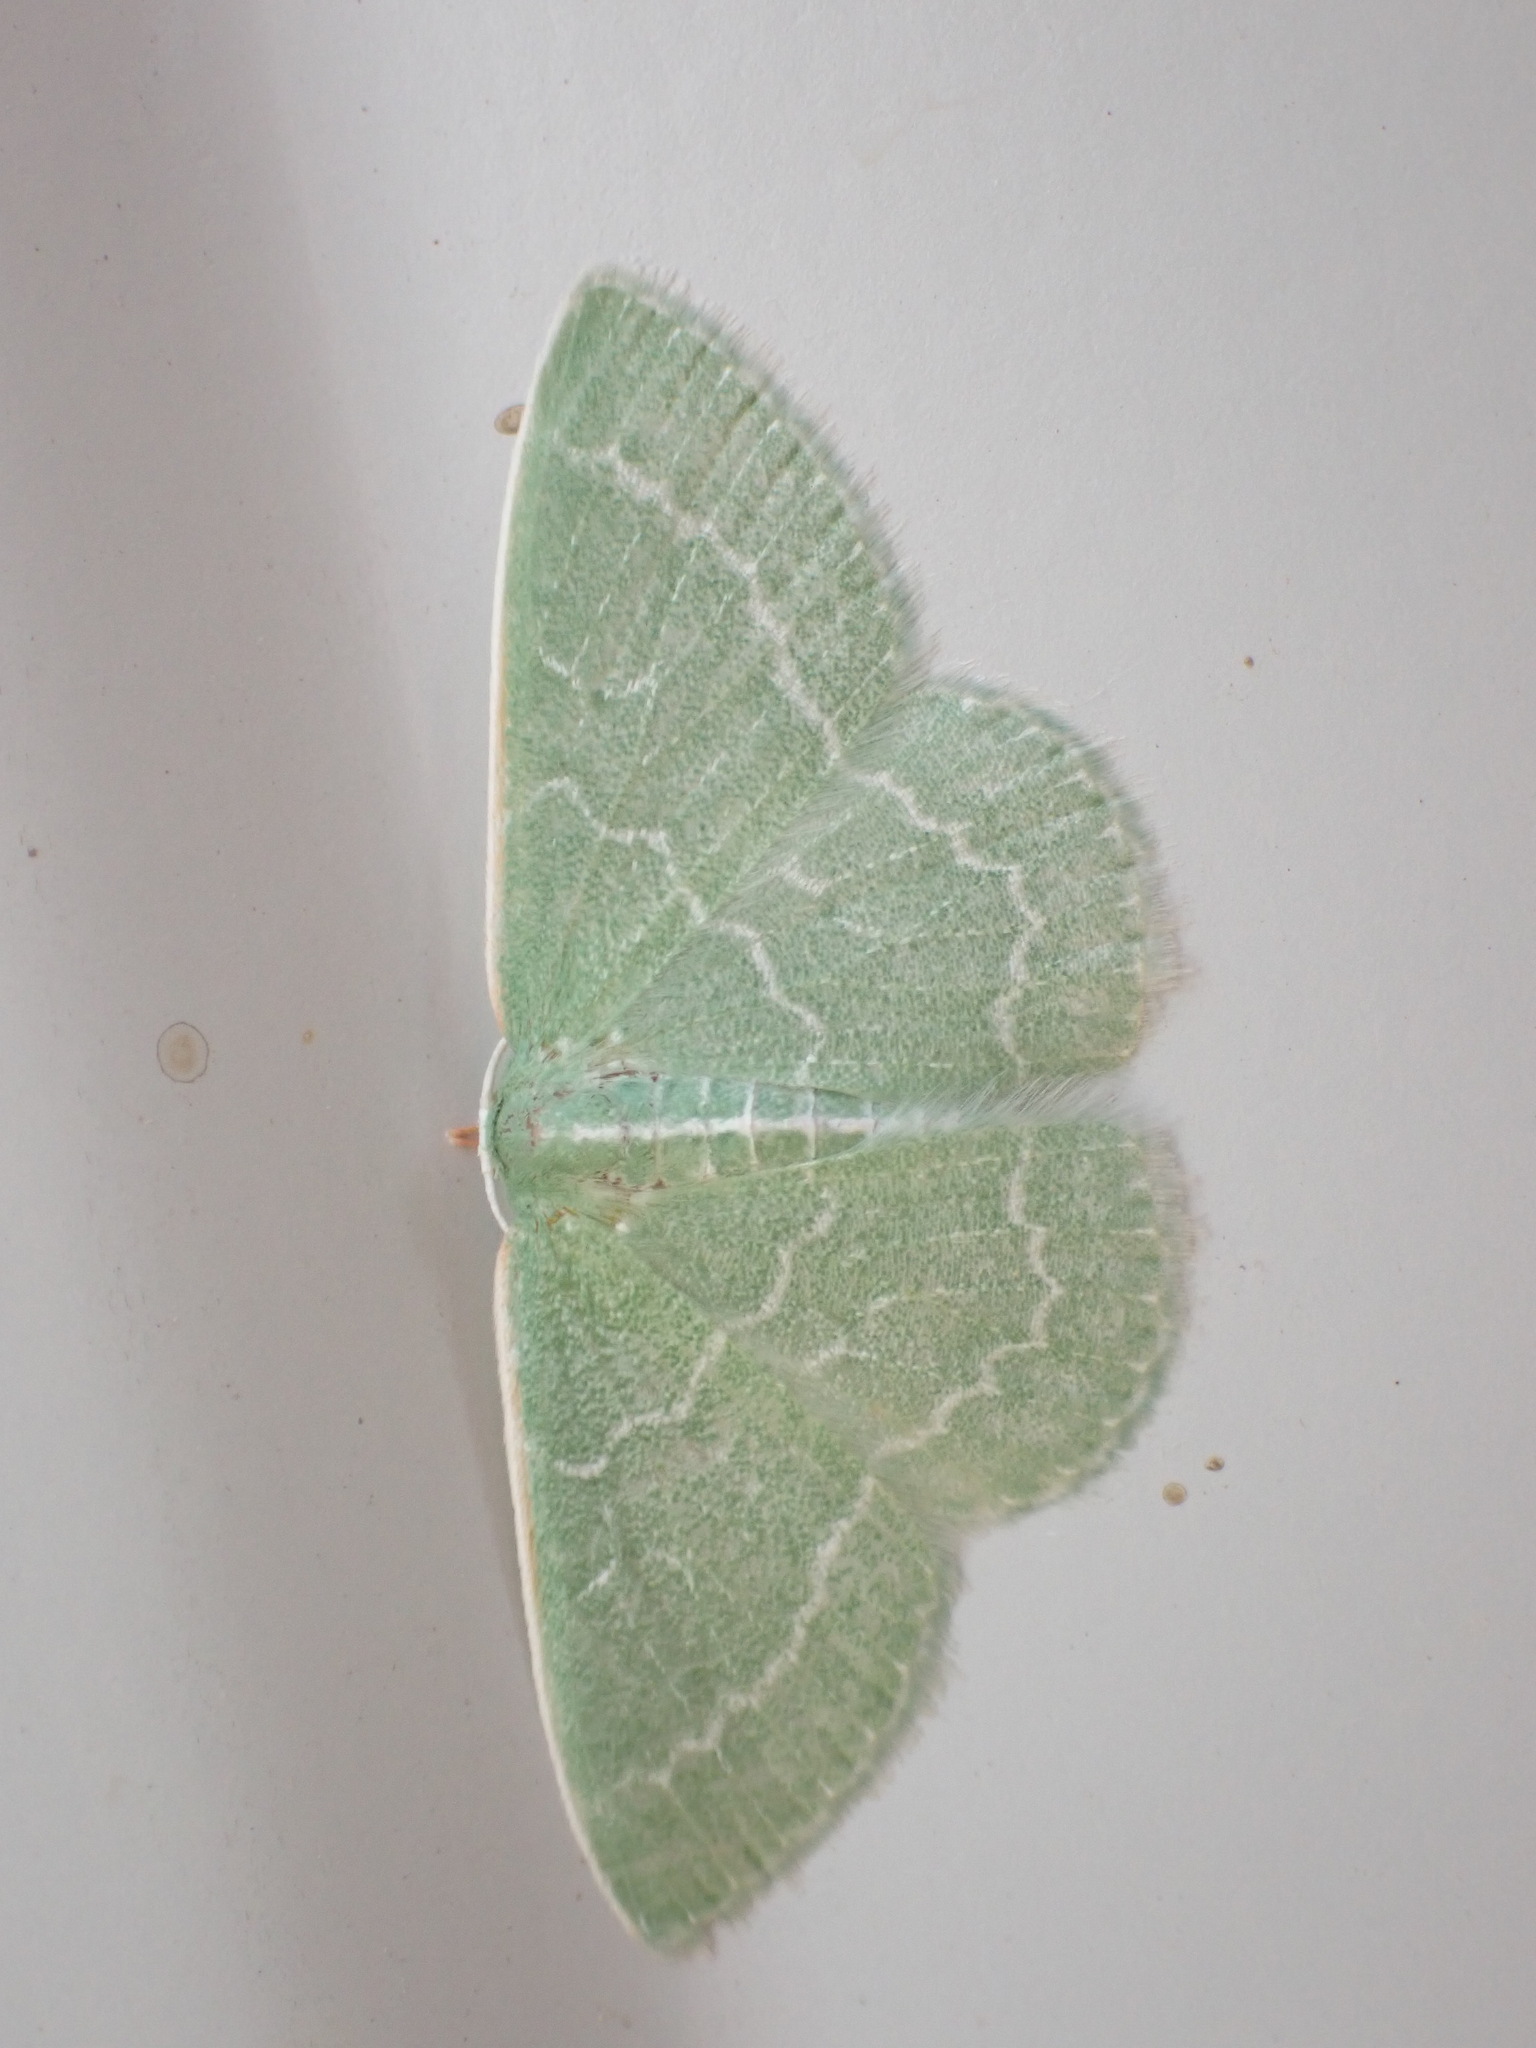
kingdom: Animalia
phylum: Arthropoda
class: Insecta
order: Lepidoptera
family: Geometridae
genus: Synchlora
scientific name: Synchlora aerata
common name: Wavy-lined emerald
